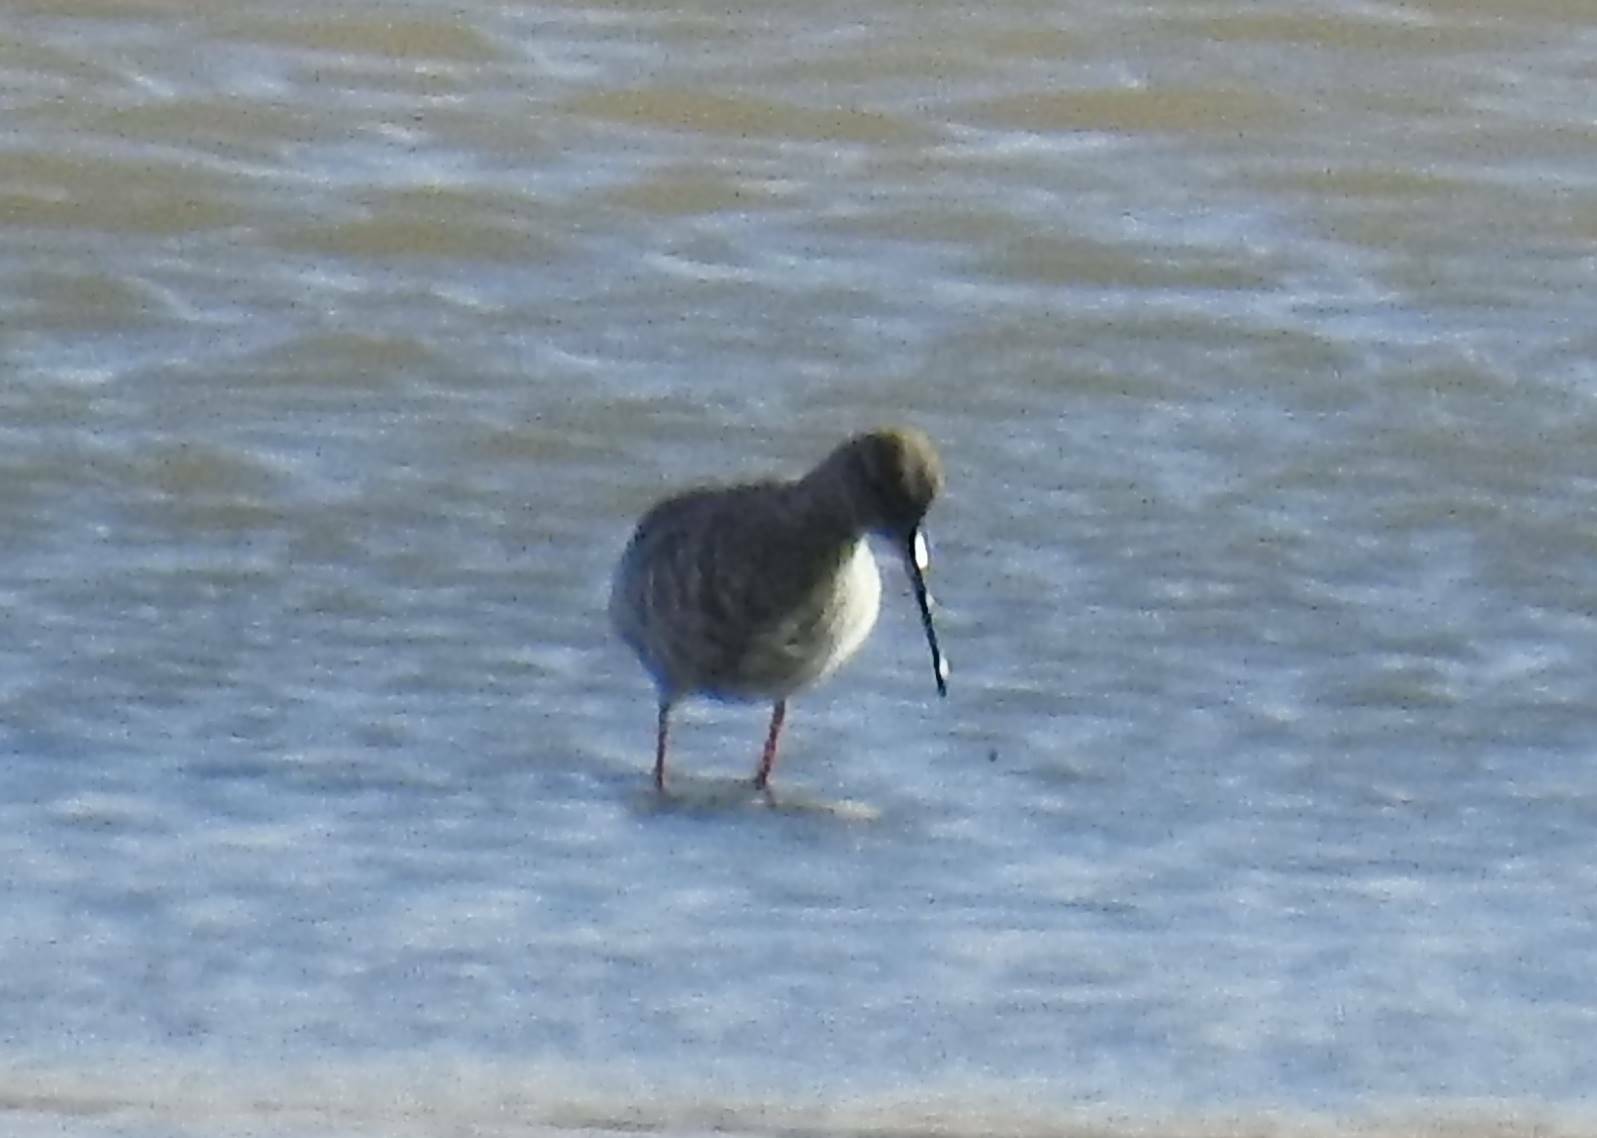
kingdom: Animalia
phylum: Chordata
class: Aves
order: Charadriiformes
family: Scolopacidae
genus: Tringa
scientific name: Tringa erythropus
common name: Spotted redshank
